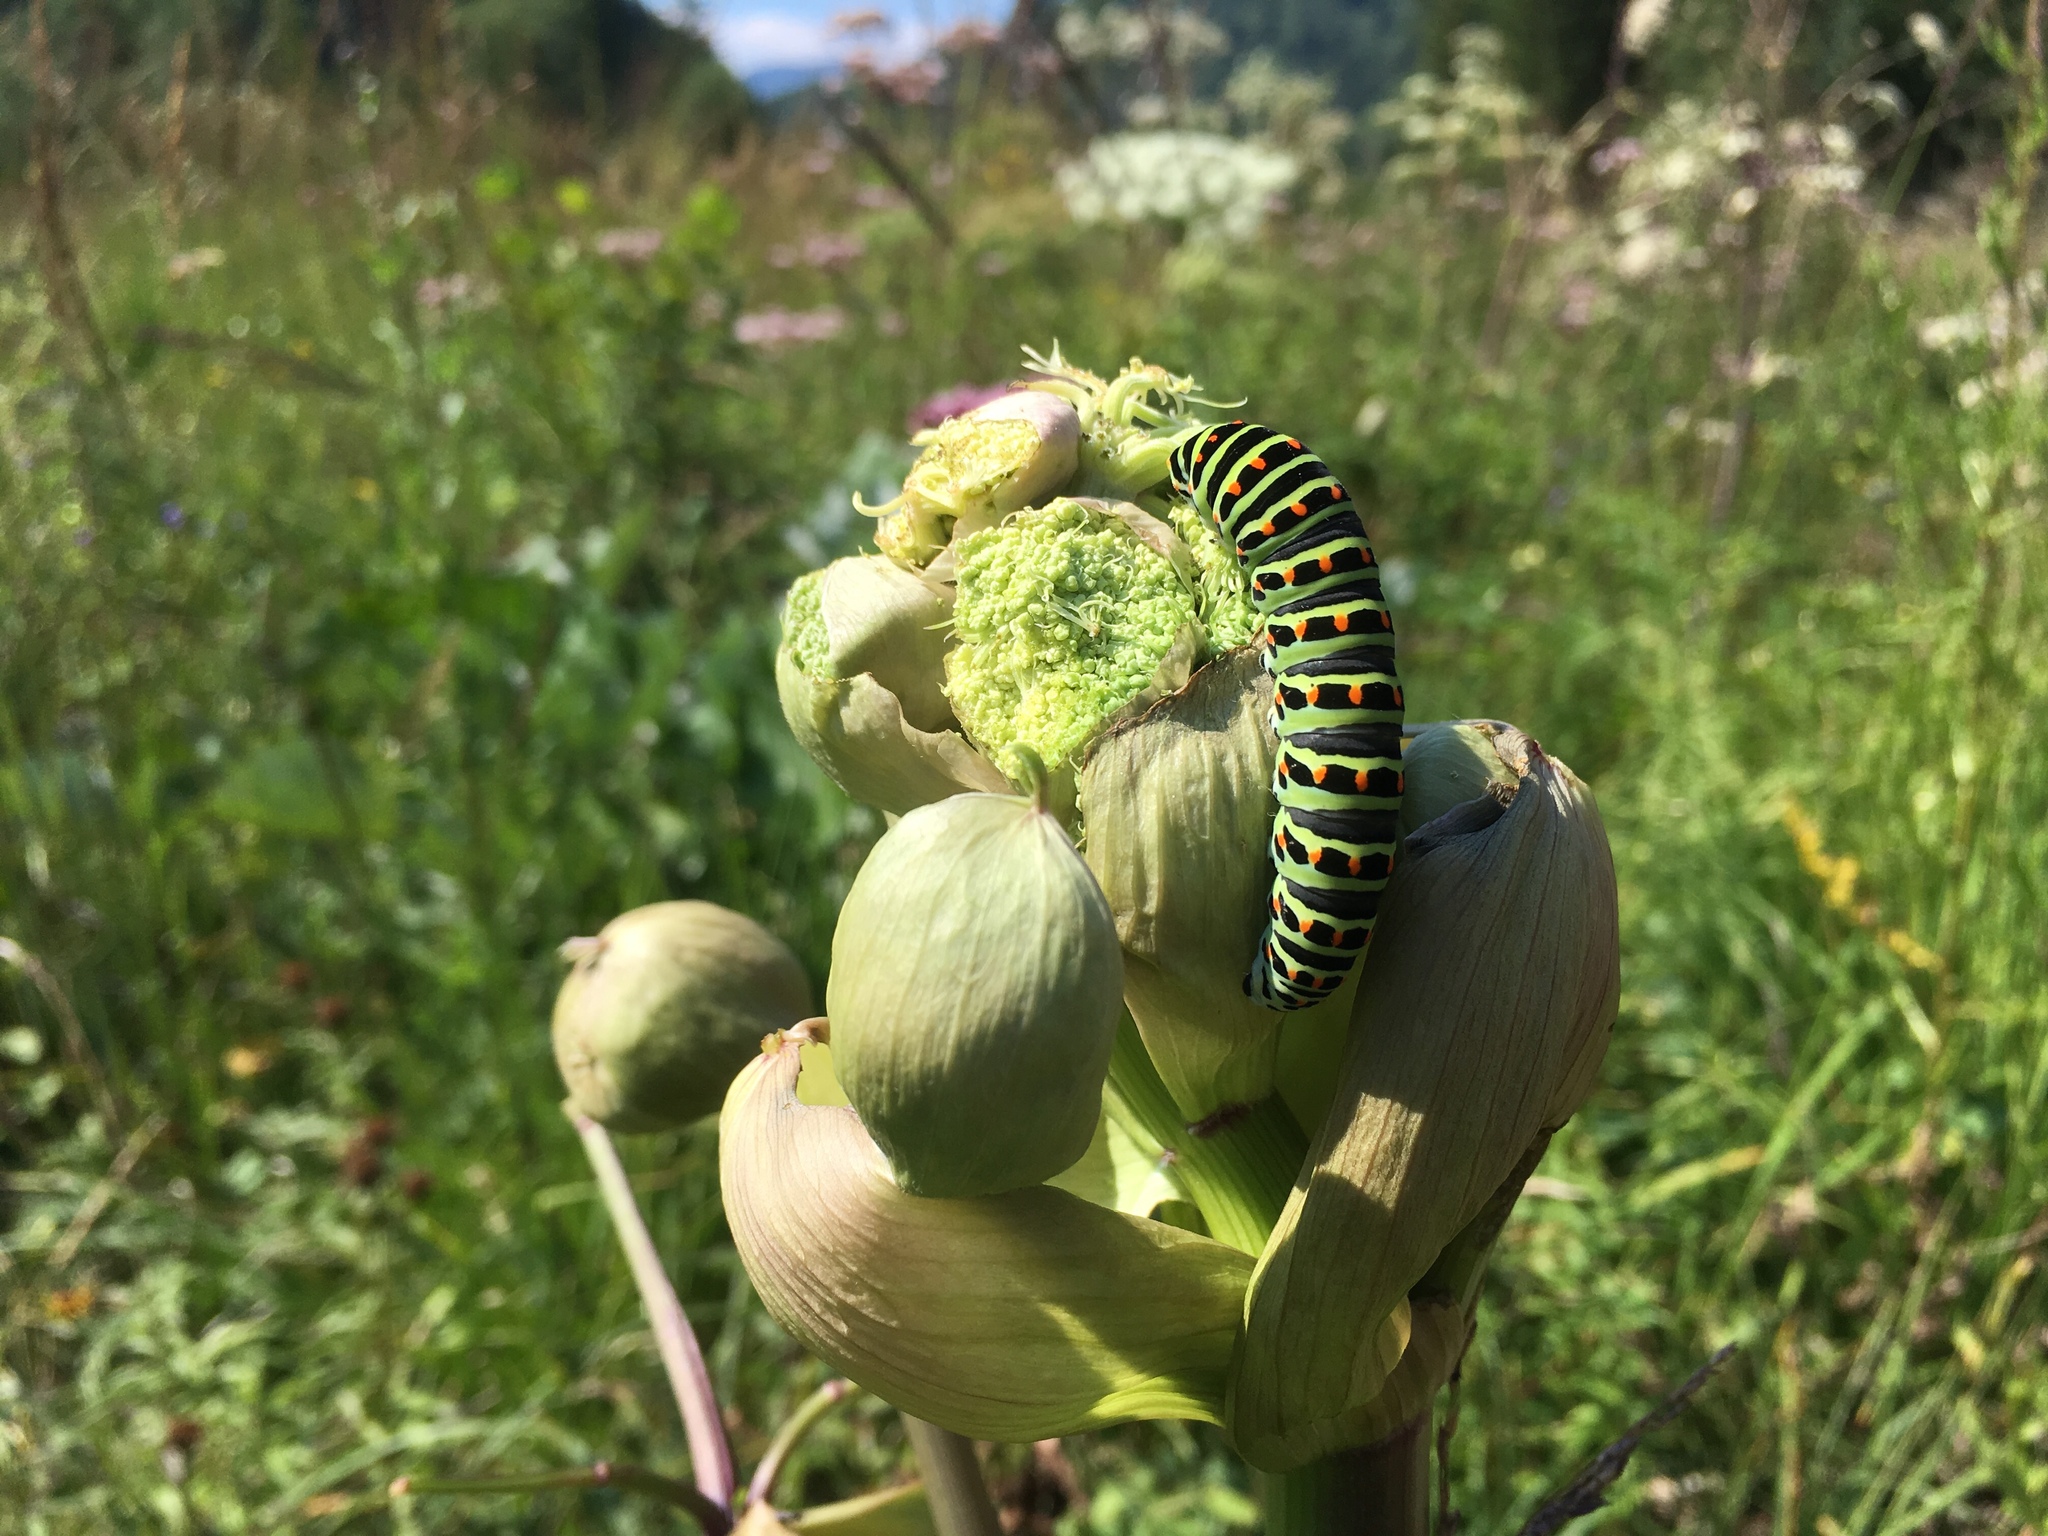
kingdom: Animalia
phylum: Arthropoda
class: Insecta
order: Lepidoptera
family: Papilionidae
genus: Papilio
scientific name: Papilio machaon
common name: Swallowtail
